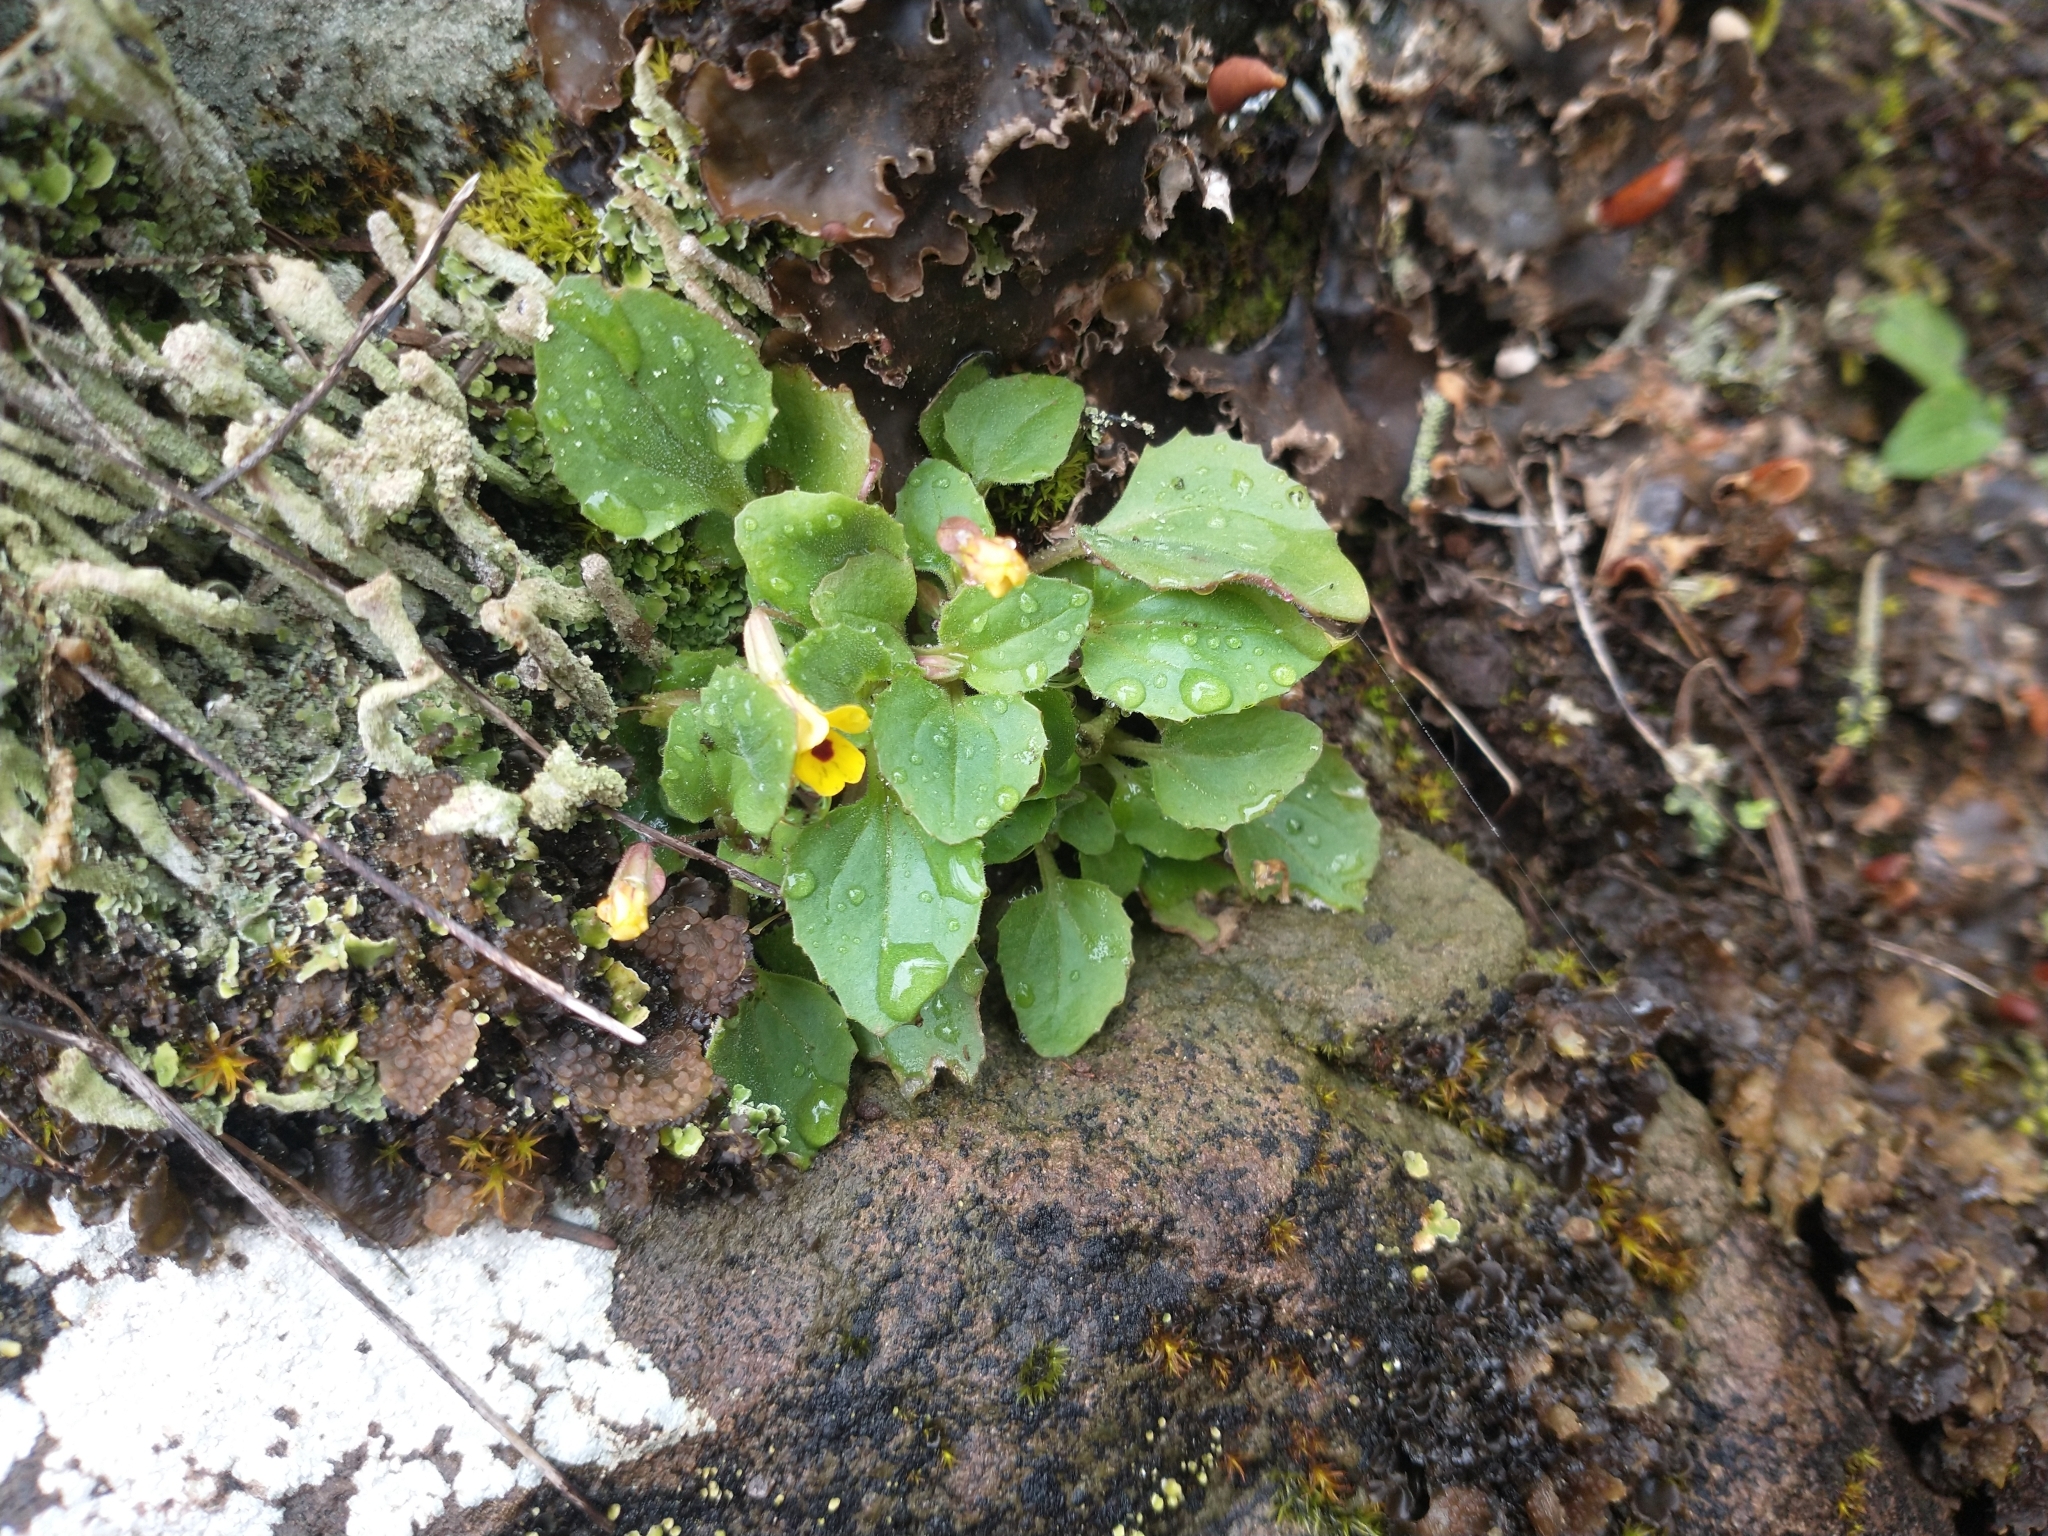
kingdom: Plantae
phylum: Tracheophyta
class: Magnoliopsida
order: Lamiales
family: Phrymaceae
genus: Erythranthe
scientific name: Erythranthe alsinoides
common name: Chickweed monkeyflower
